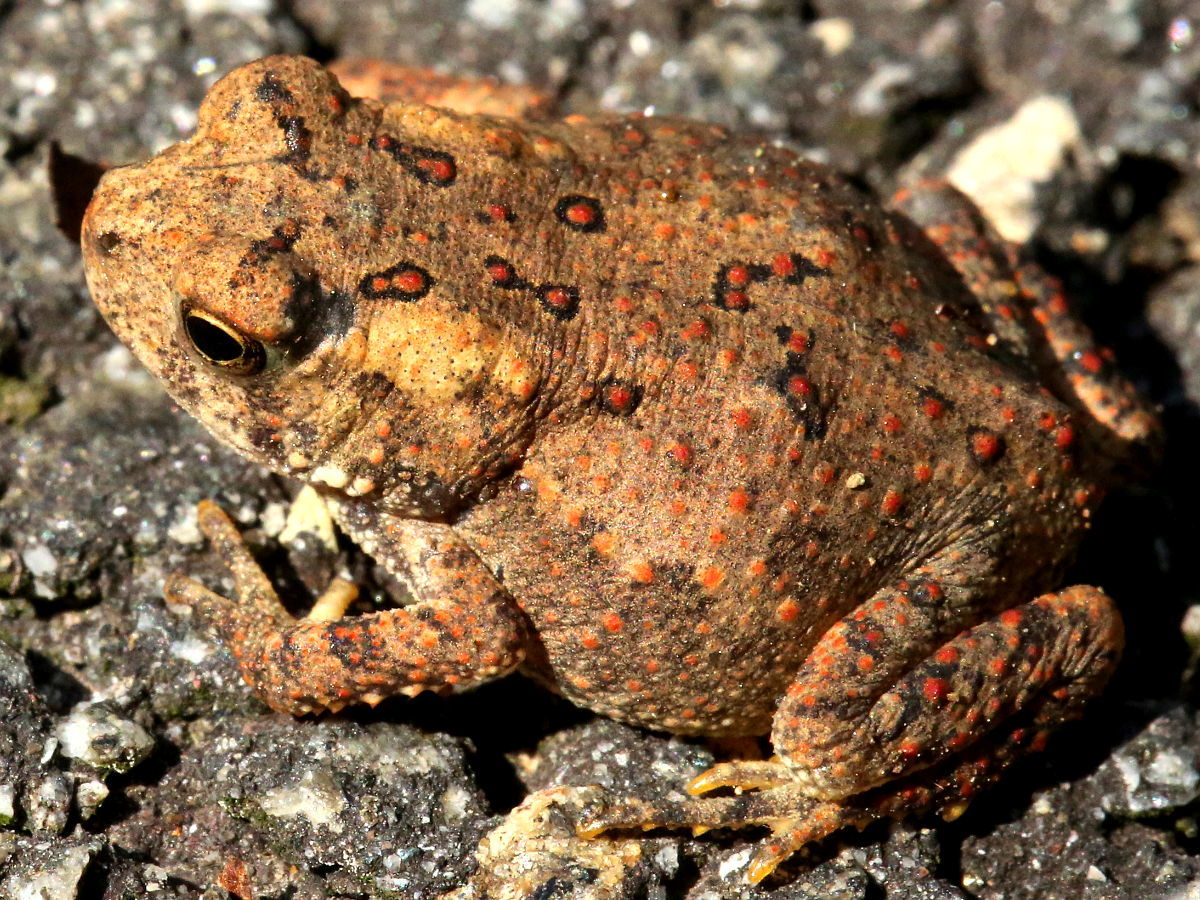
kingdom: Animalia
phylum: Chordata
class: Amphibia
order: Anura
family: Bufonidae
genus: Anaxyrus
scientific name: Anaxyrus americanus
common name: American toad
